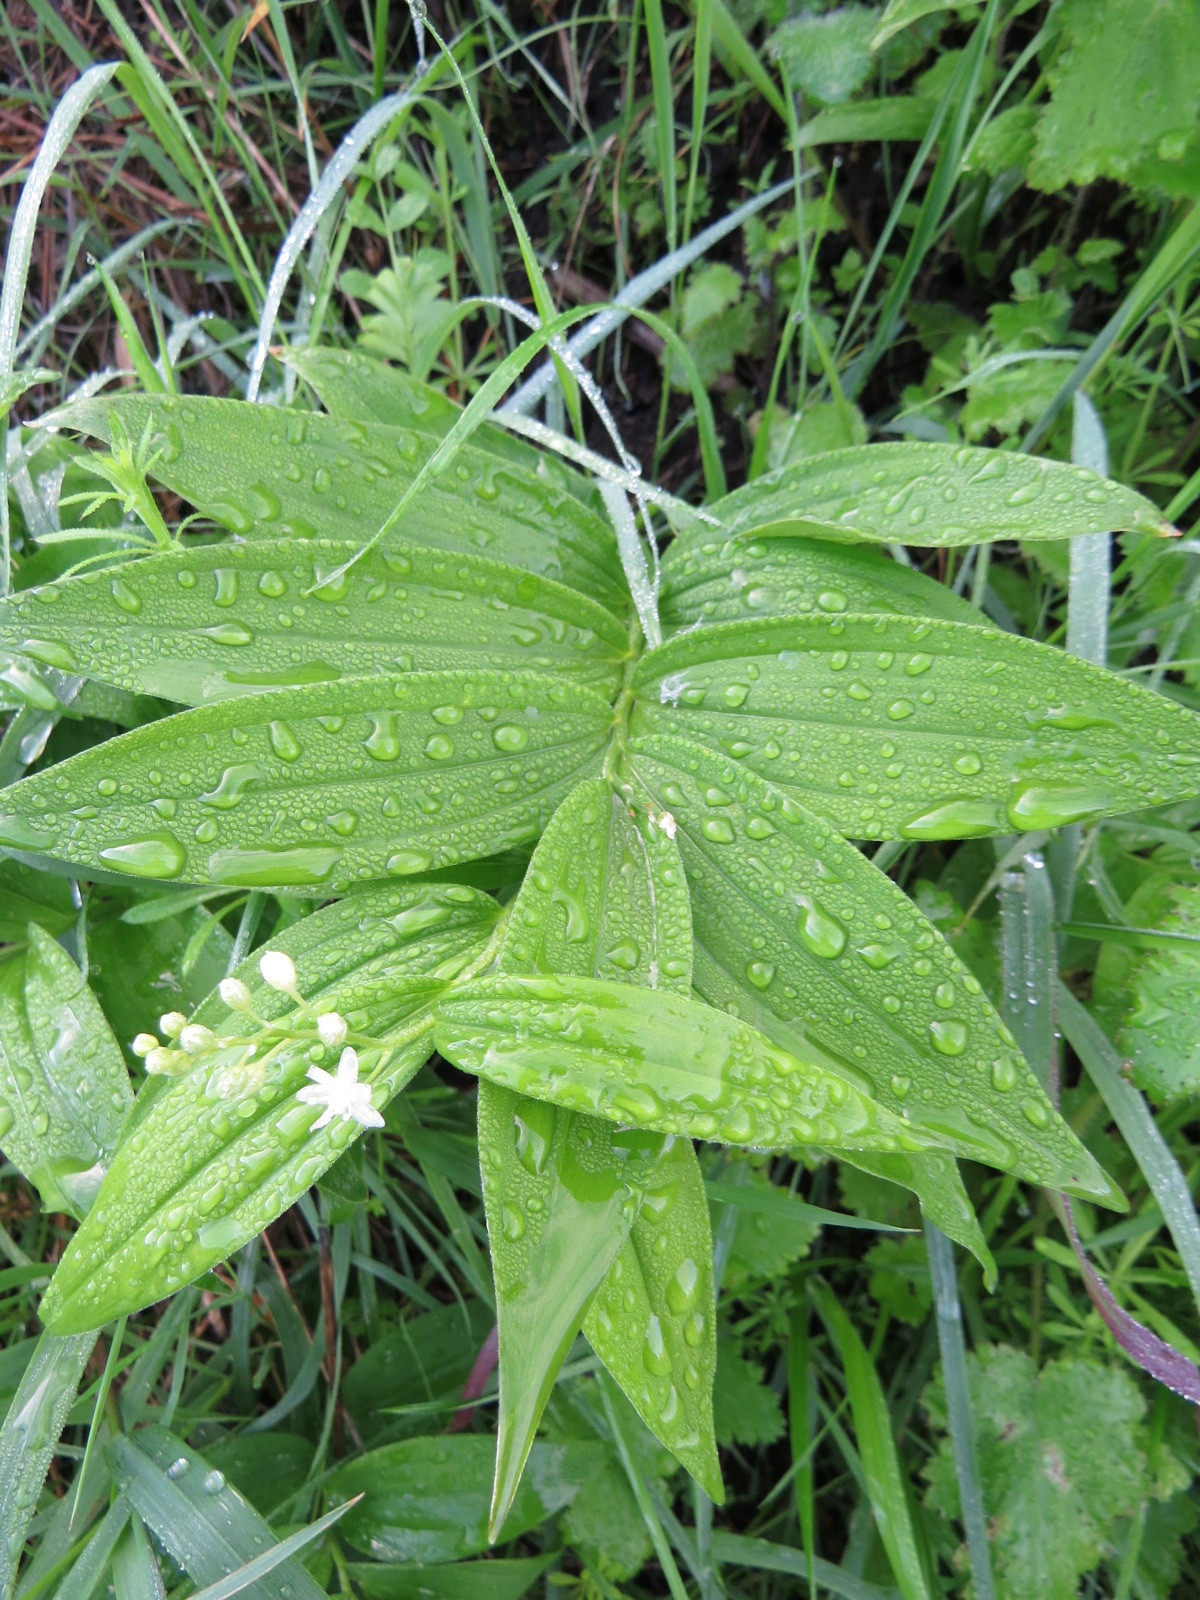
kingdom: Plantae
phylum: Tracheophyta
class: Liliopsida
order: Asparagales
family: Asparagaceae
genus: Maianthemum
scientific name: Maianthemum stellatum
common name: Little false solomon's seal
